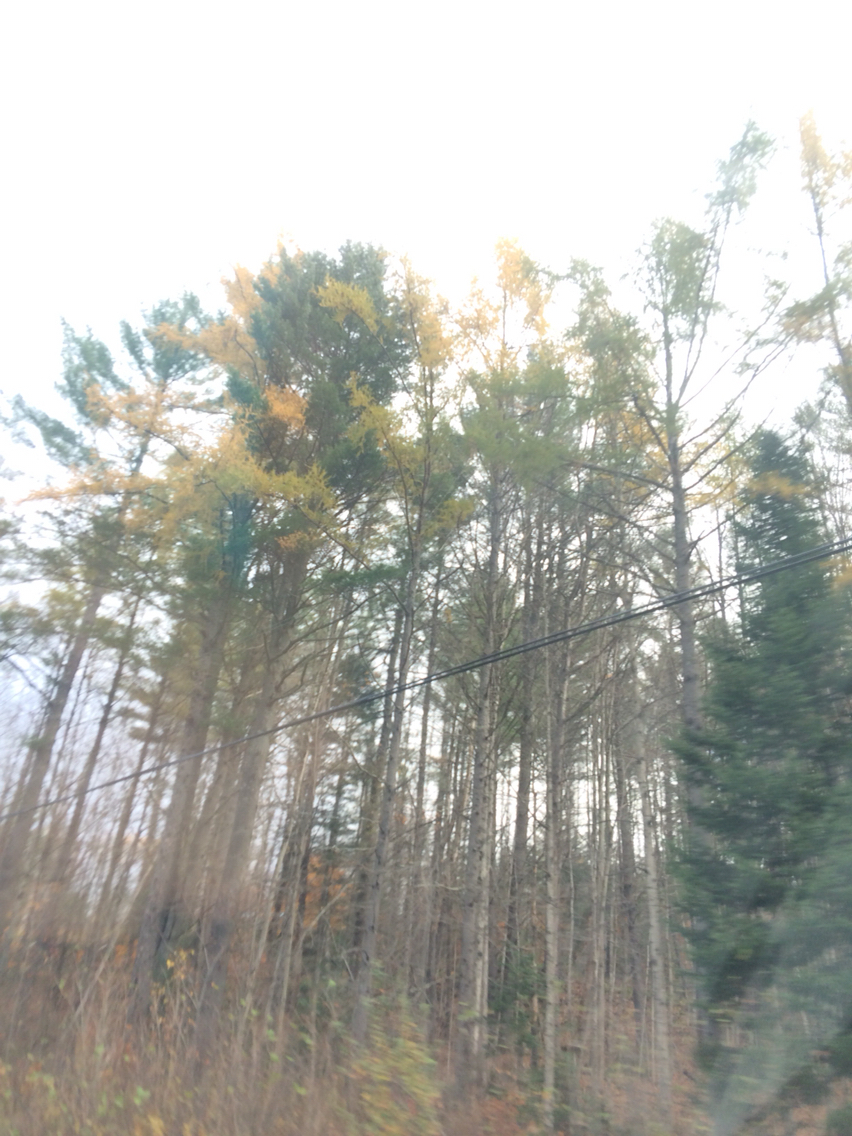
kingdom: Plantae
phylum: Tracheophyta
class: Pinopsida
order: Pinales
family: Pinaceae
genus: Larix
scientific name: Larix laricina
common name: American larch
